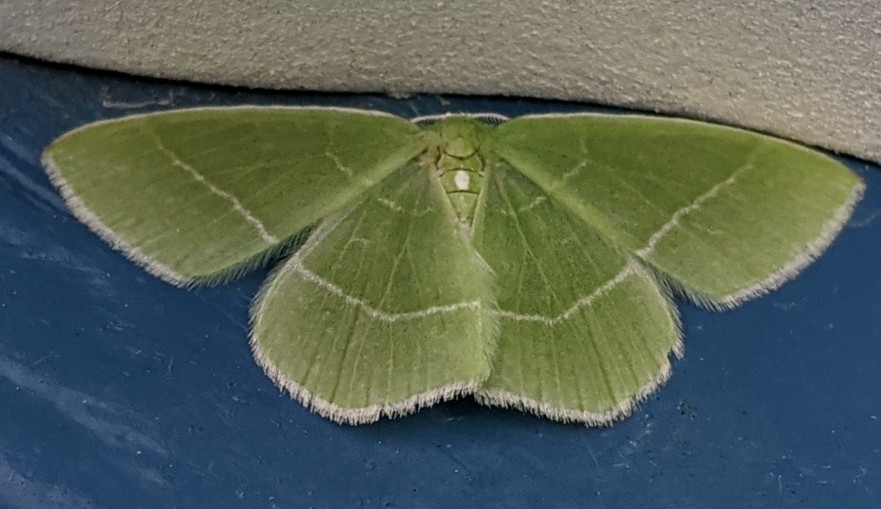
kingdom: Animalia
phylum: Arthropoda
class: Insecta
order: Lepidoptera
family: Geometridae
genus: Nemoria
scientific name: Nemoria mimosaria
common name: White-fringed emerald
